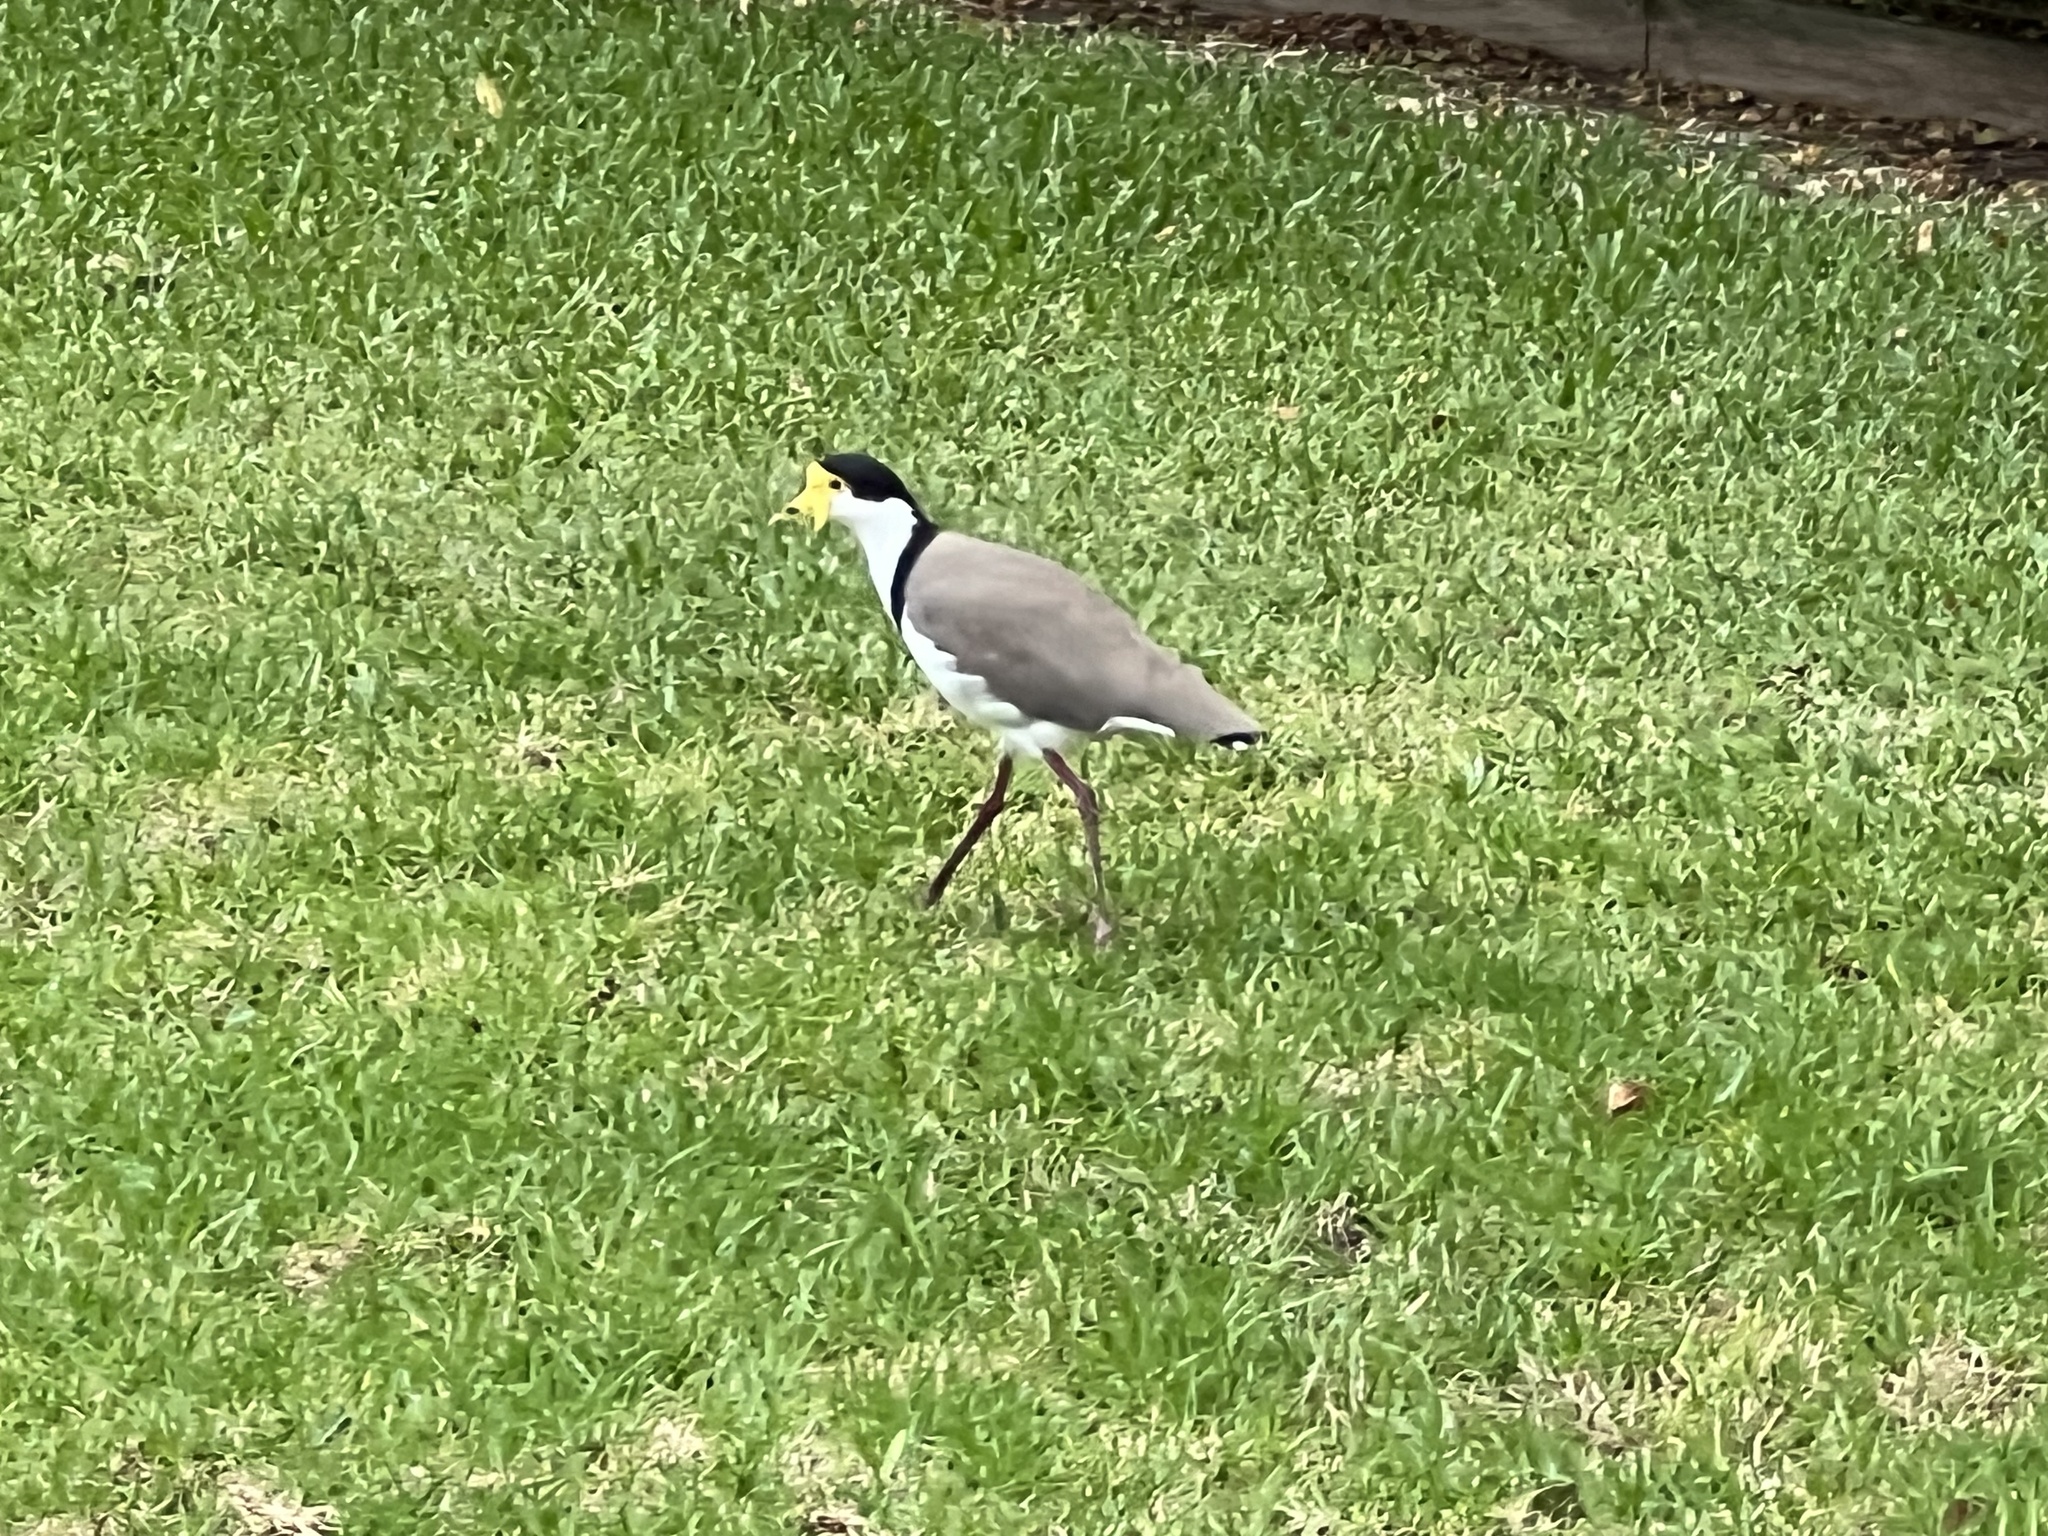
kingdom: Animalia
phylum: Chordata
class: Aves
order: Charadriiformes
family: Charadriidae
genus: Vanellus
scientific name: Vanellus miles
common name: Masked lapwing
